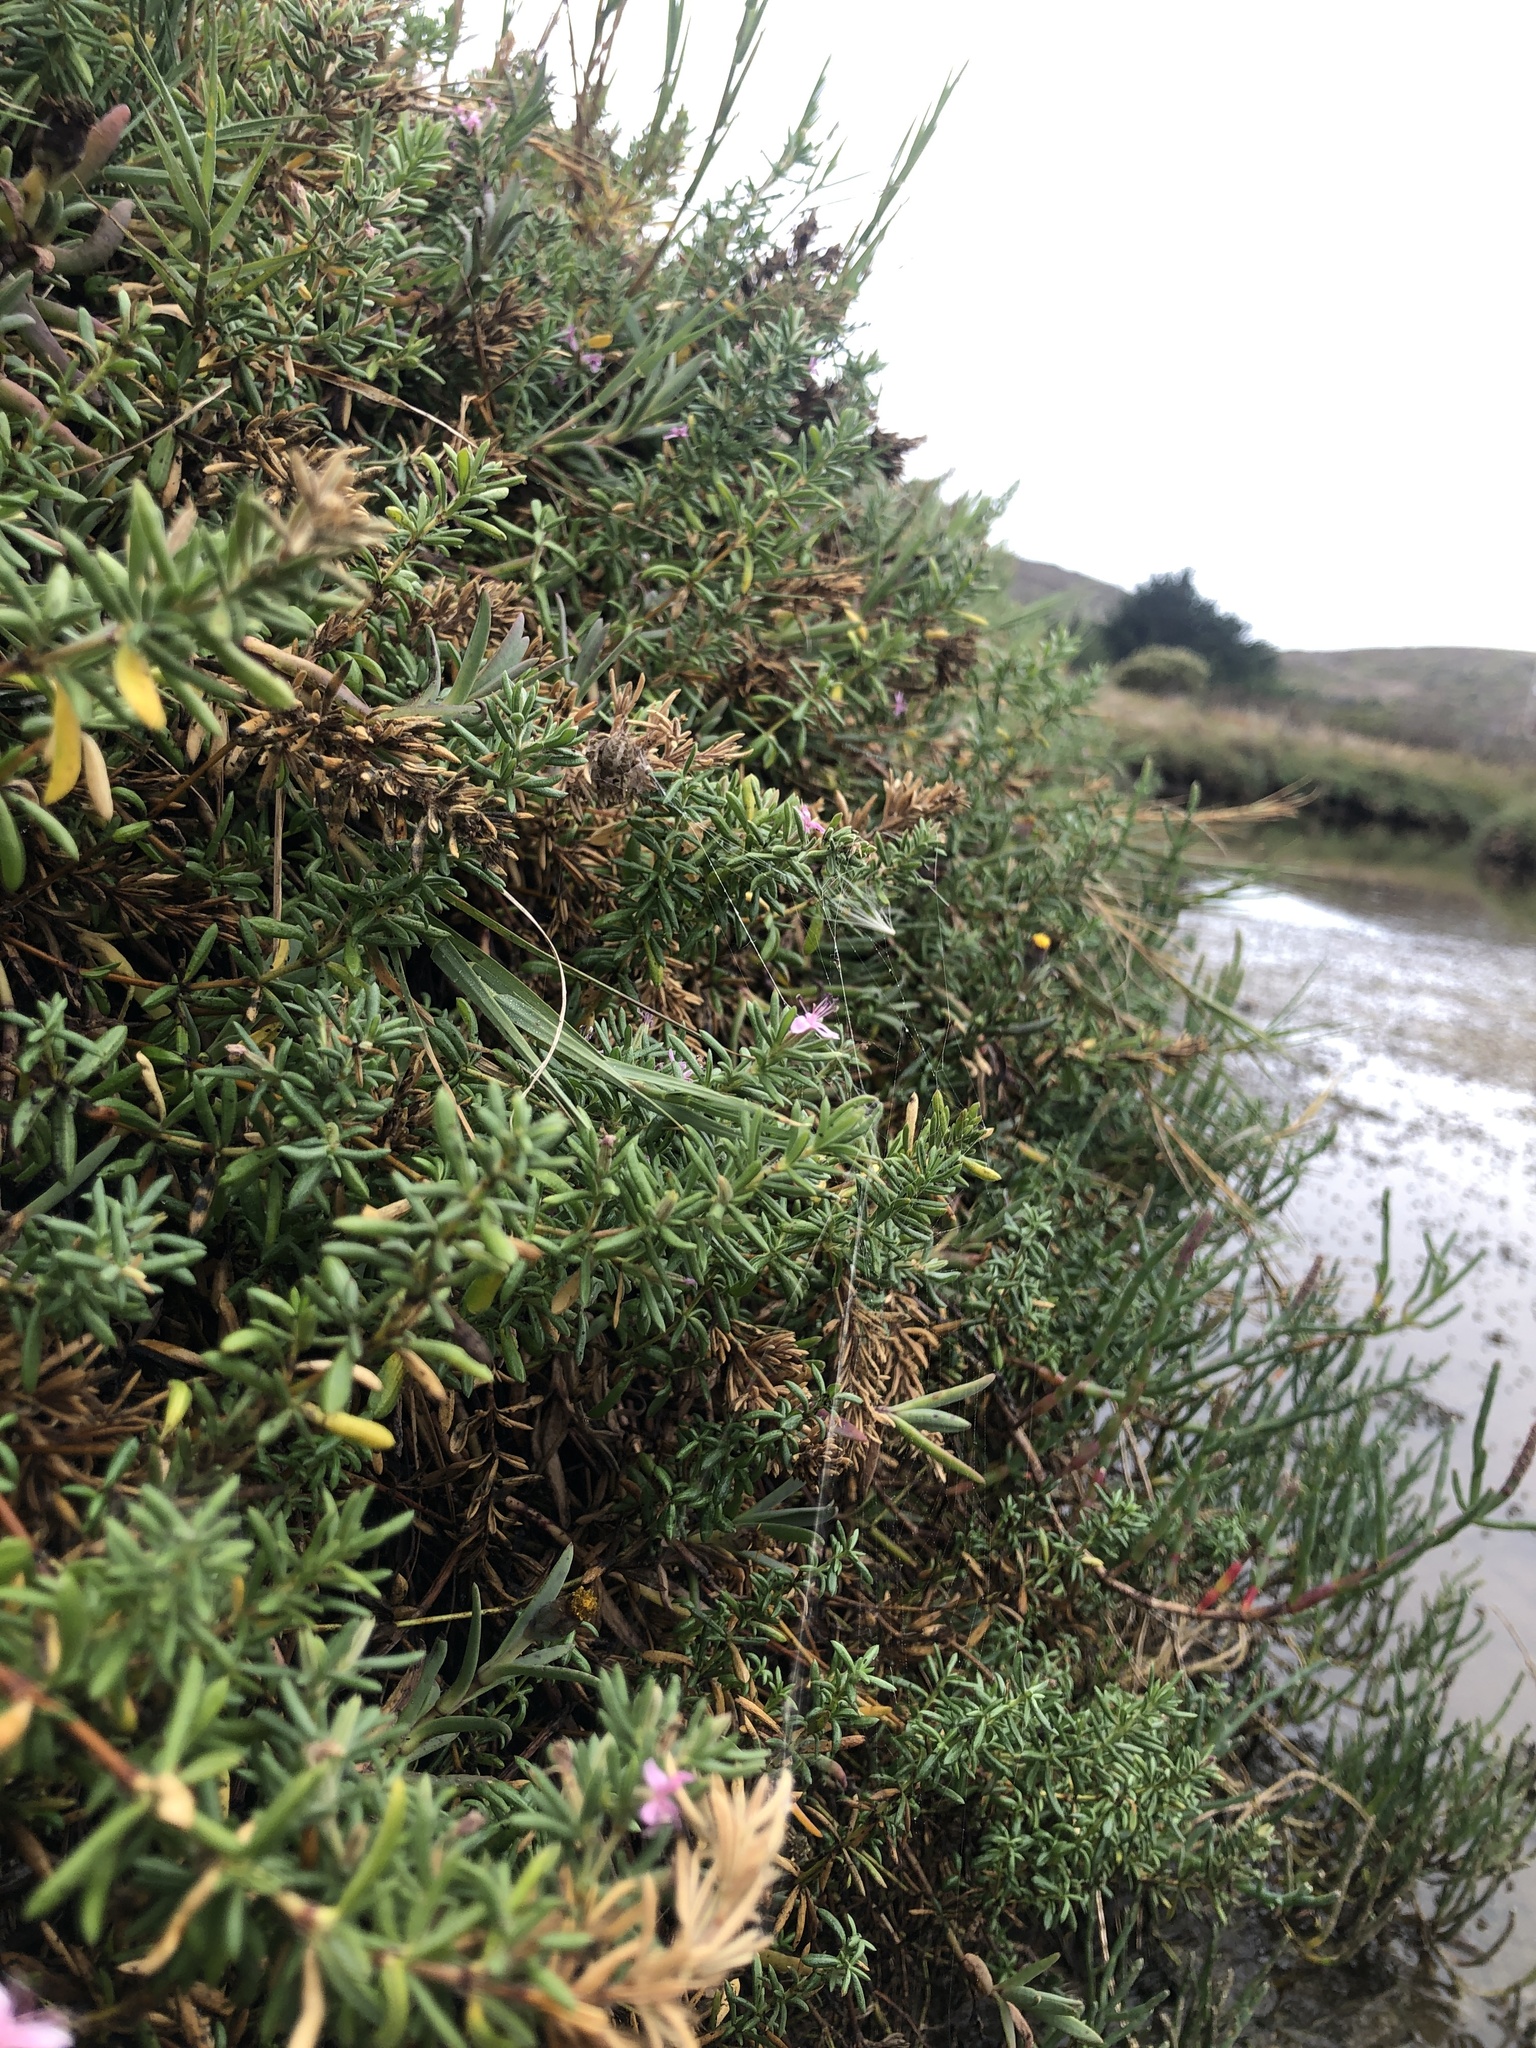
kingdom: Plantae
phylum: Tracheophyta
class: Magnoliopsida
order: Caryophyllales
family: Frankeniaceae
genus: Frankenia
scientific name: Frankenia salina
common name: Alkali seaheath
